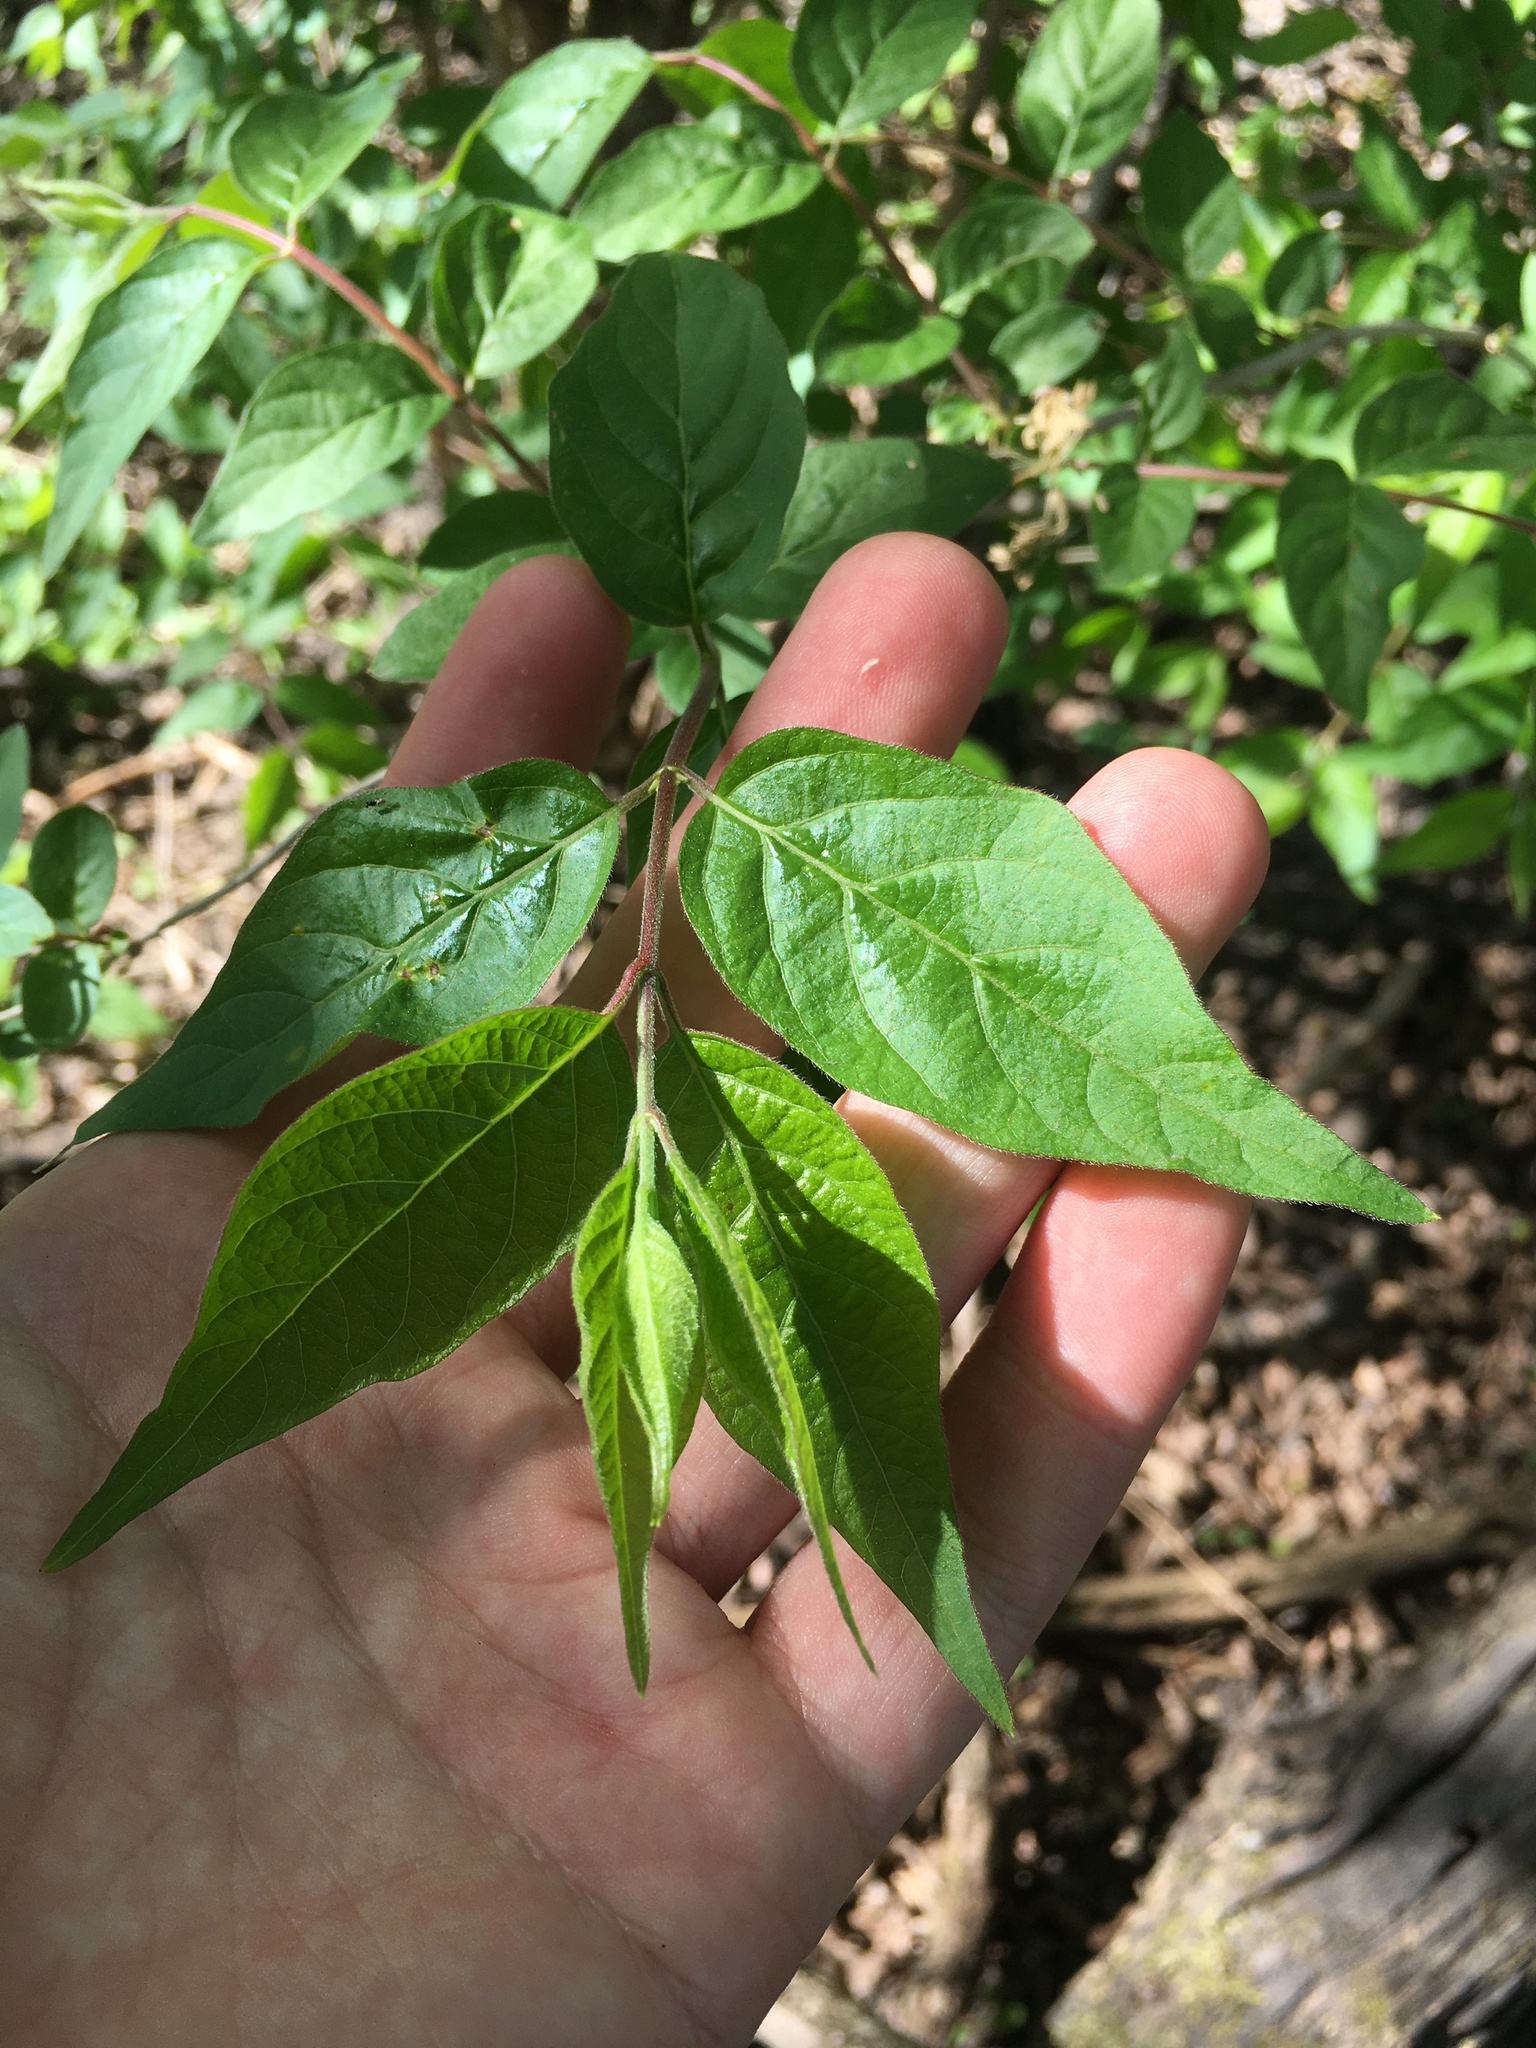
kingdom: Plantae
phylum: Tracheophyta
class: Magnoliopsida
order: Dipsacales
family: Caprifoliaceae
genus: Lonicera
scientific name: Lonicera maackii
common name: Amur honeysuckle
